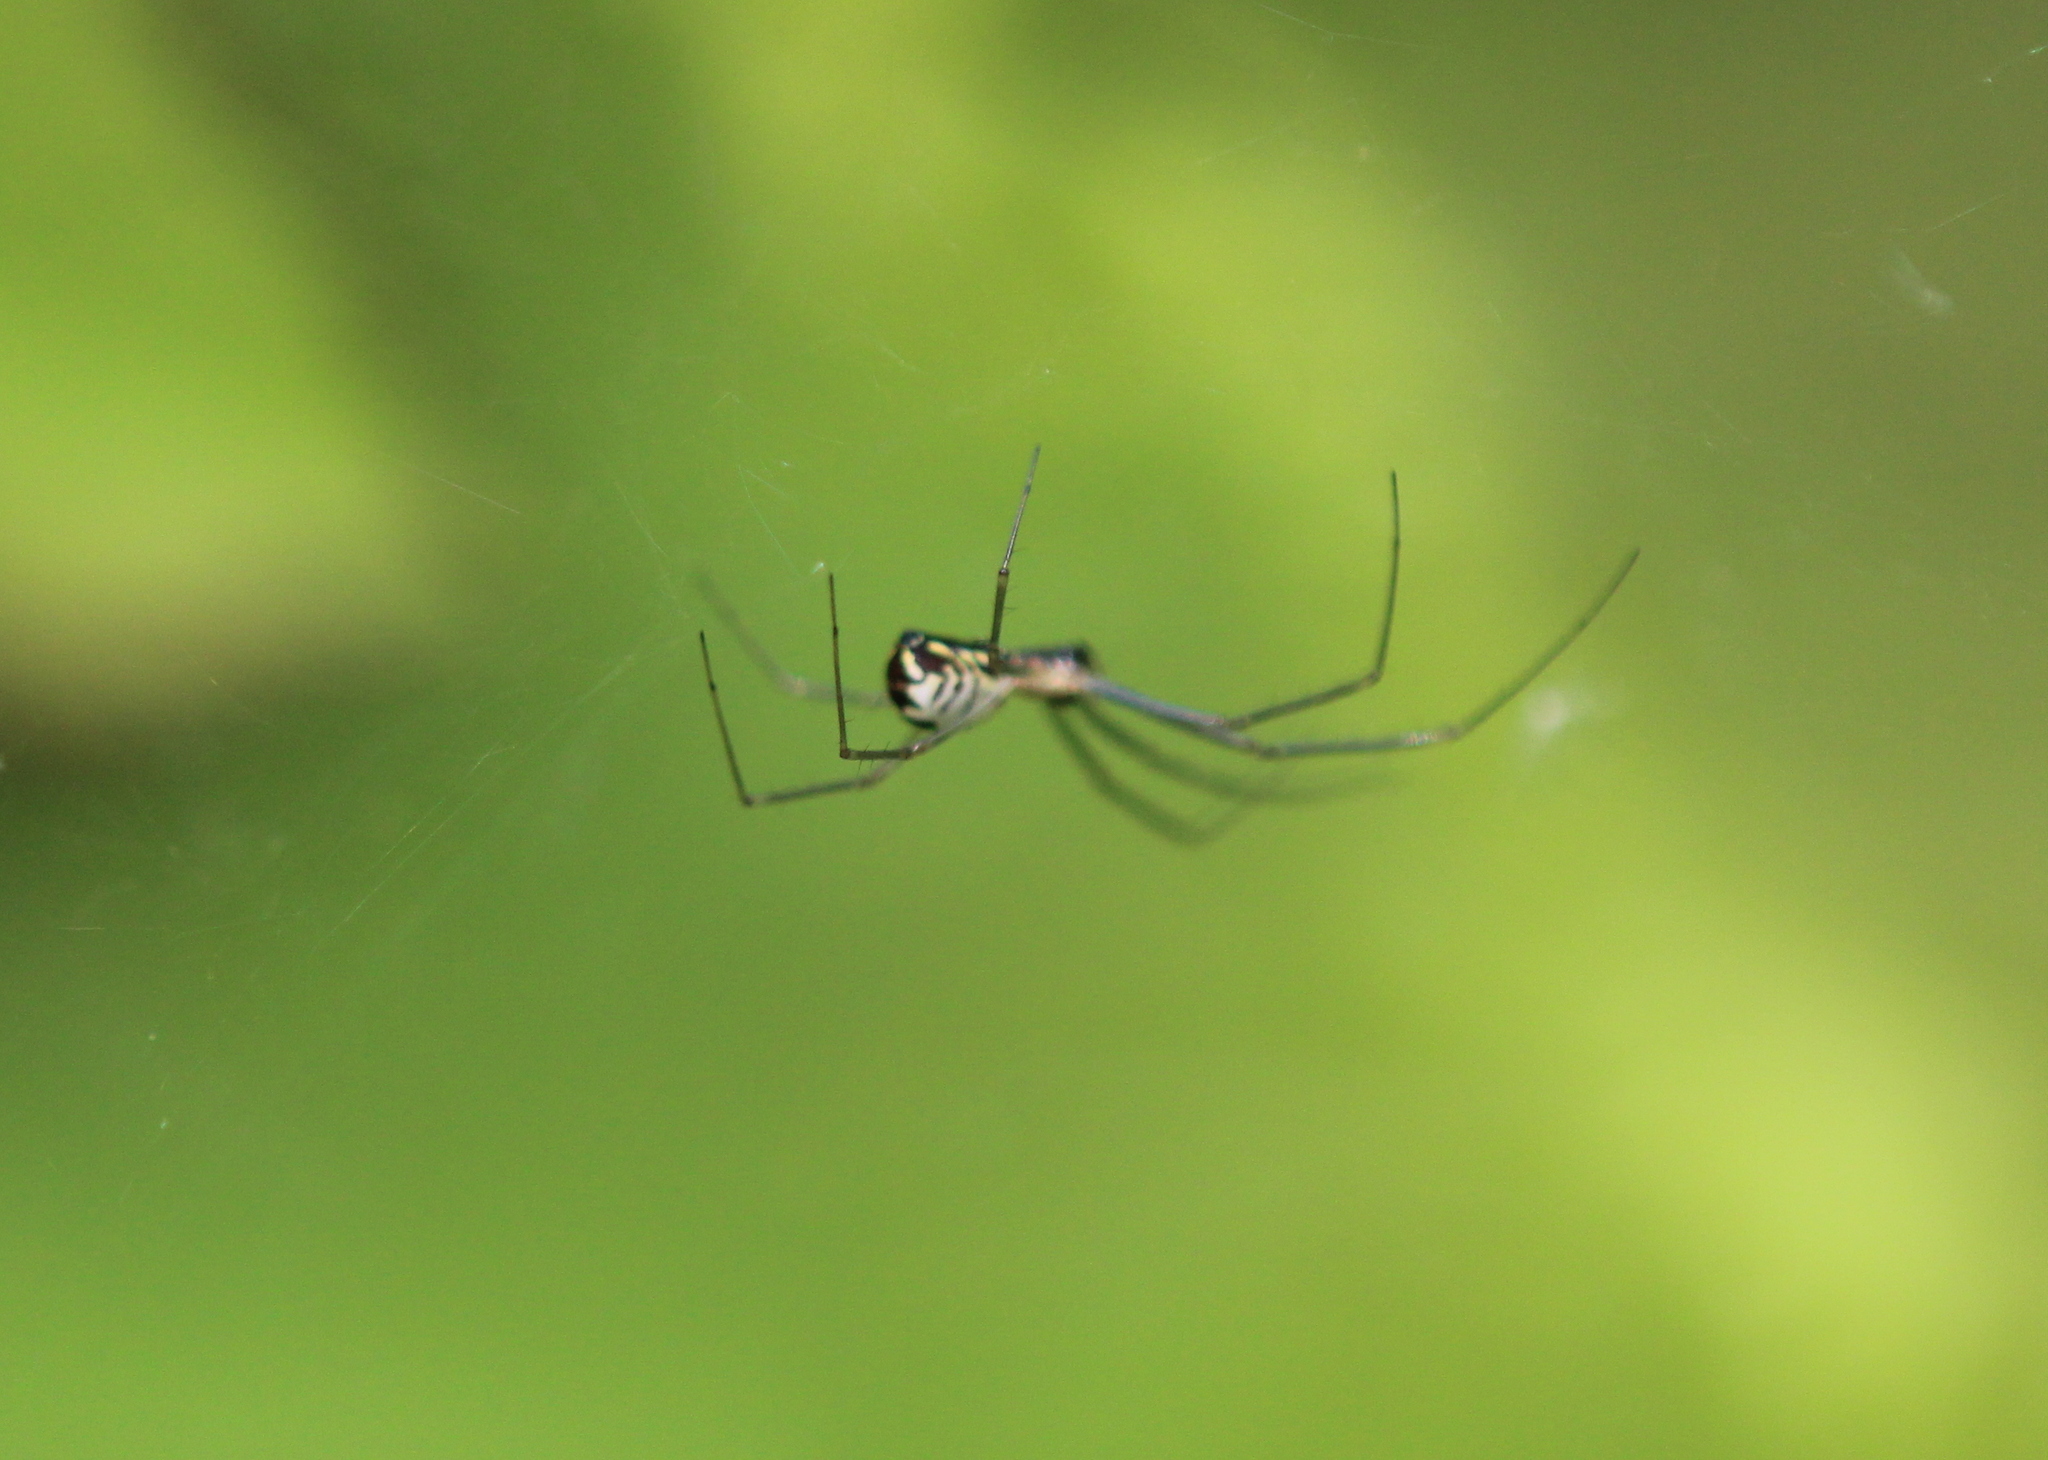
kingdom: Animalia
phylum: Arthropoda
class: Arachnida
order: Araneae
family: Linyphiidae
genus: Neriene
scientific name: Neriene radiata
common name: Filmy dome spider
